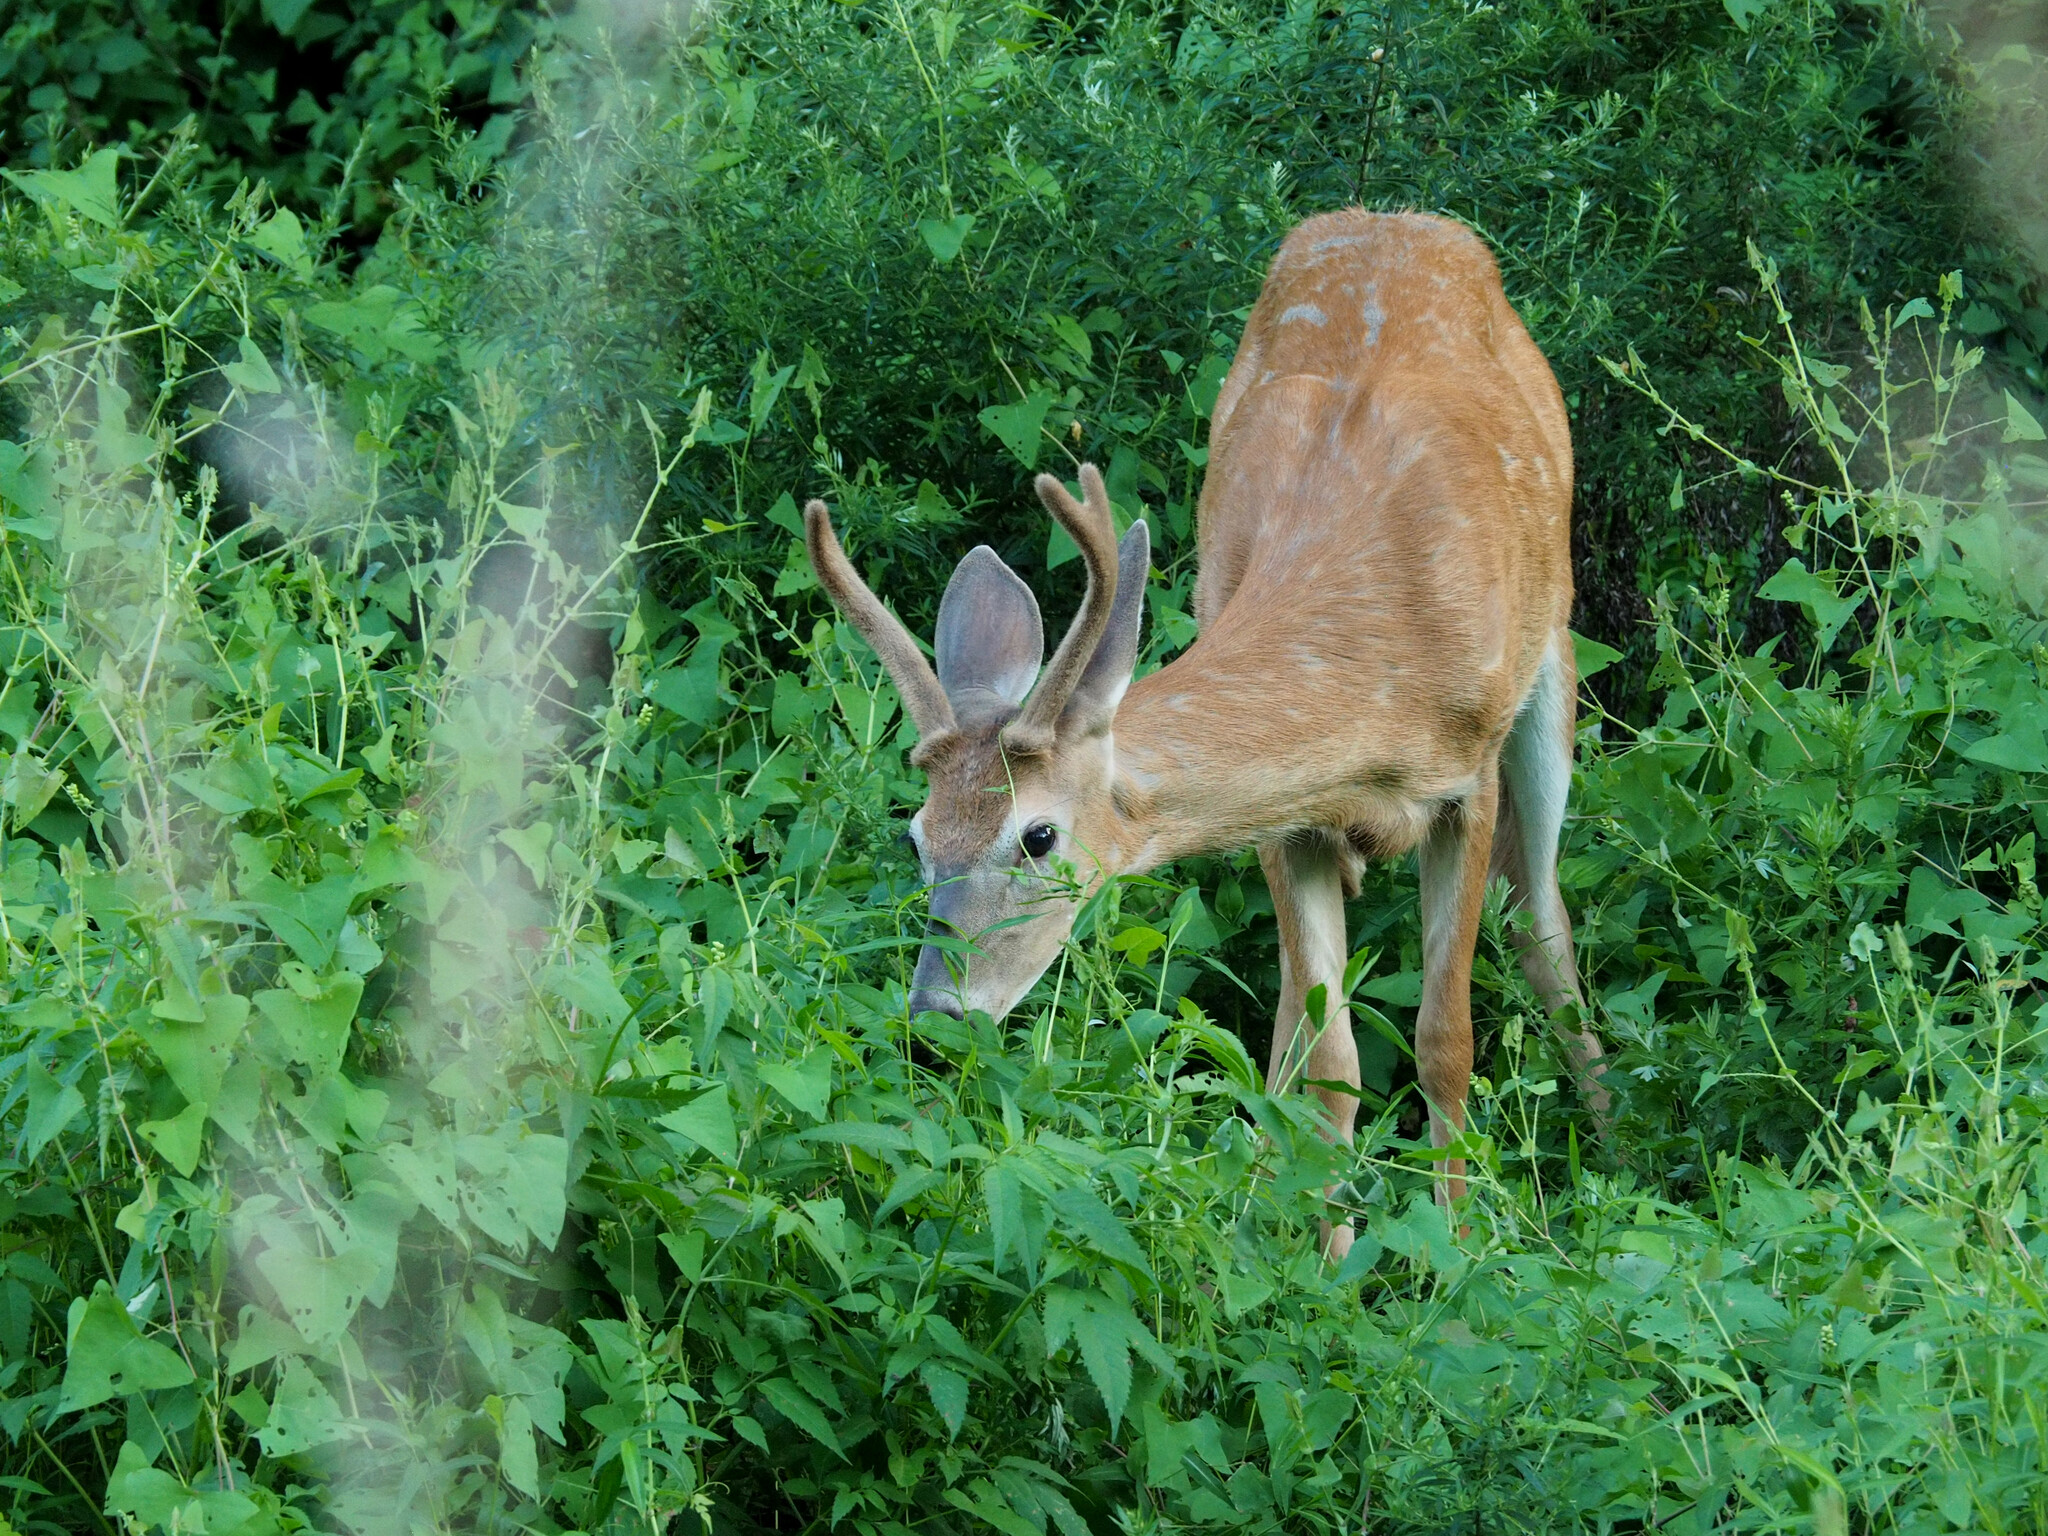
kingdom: Animalia
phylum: Chordata
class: Mammalia
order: Artiodactyla
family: Cervidae
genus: Odocoileus
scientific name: Odocoileus virginianus
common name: White-tailed deer
